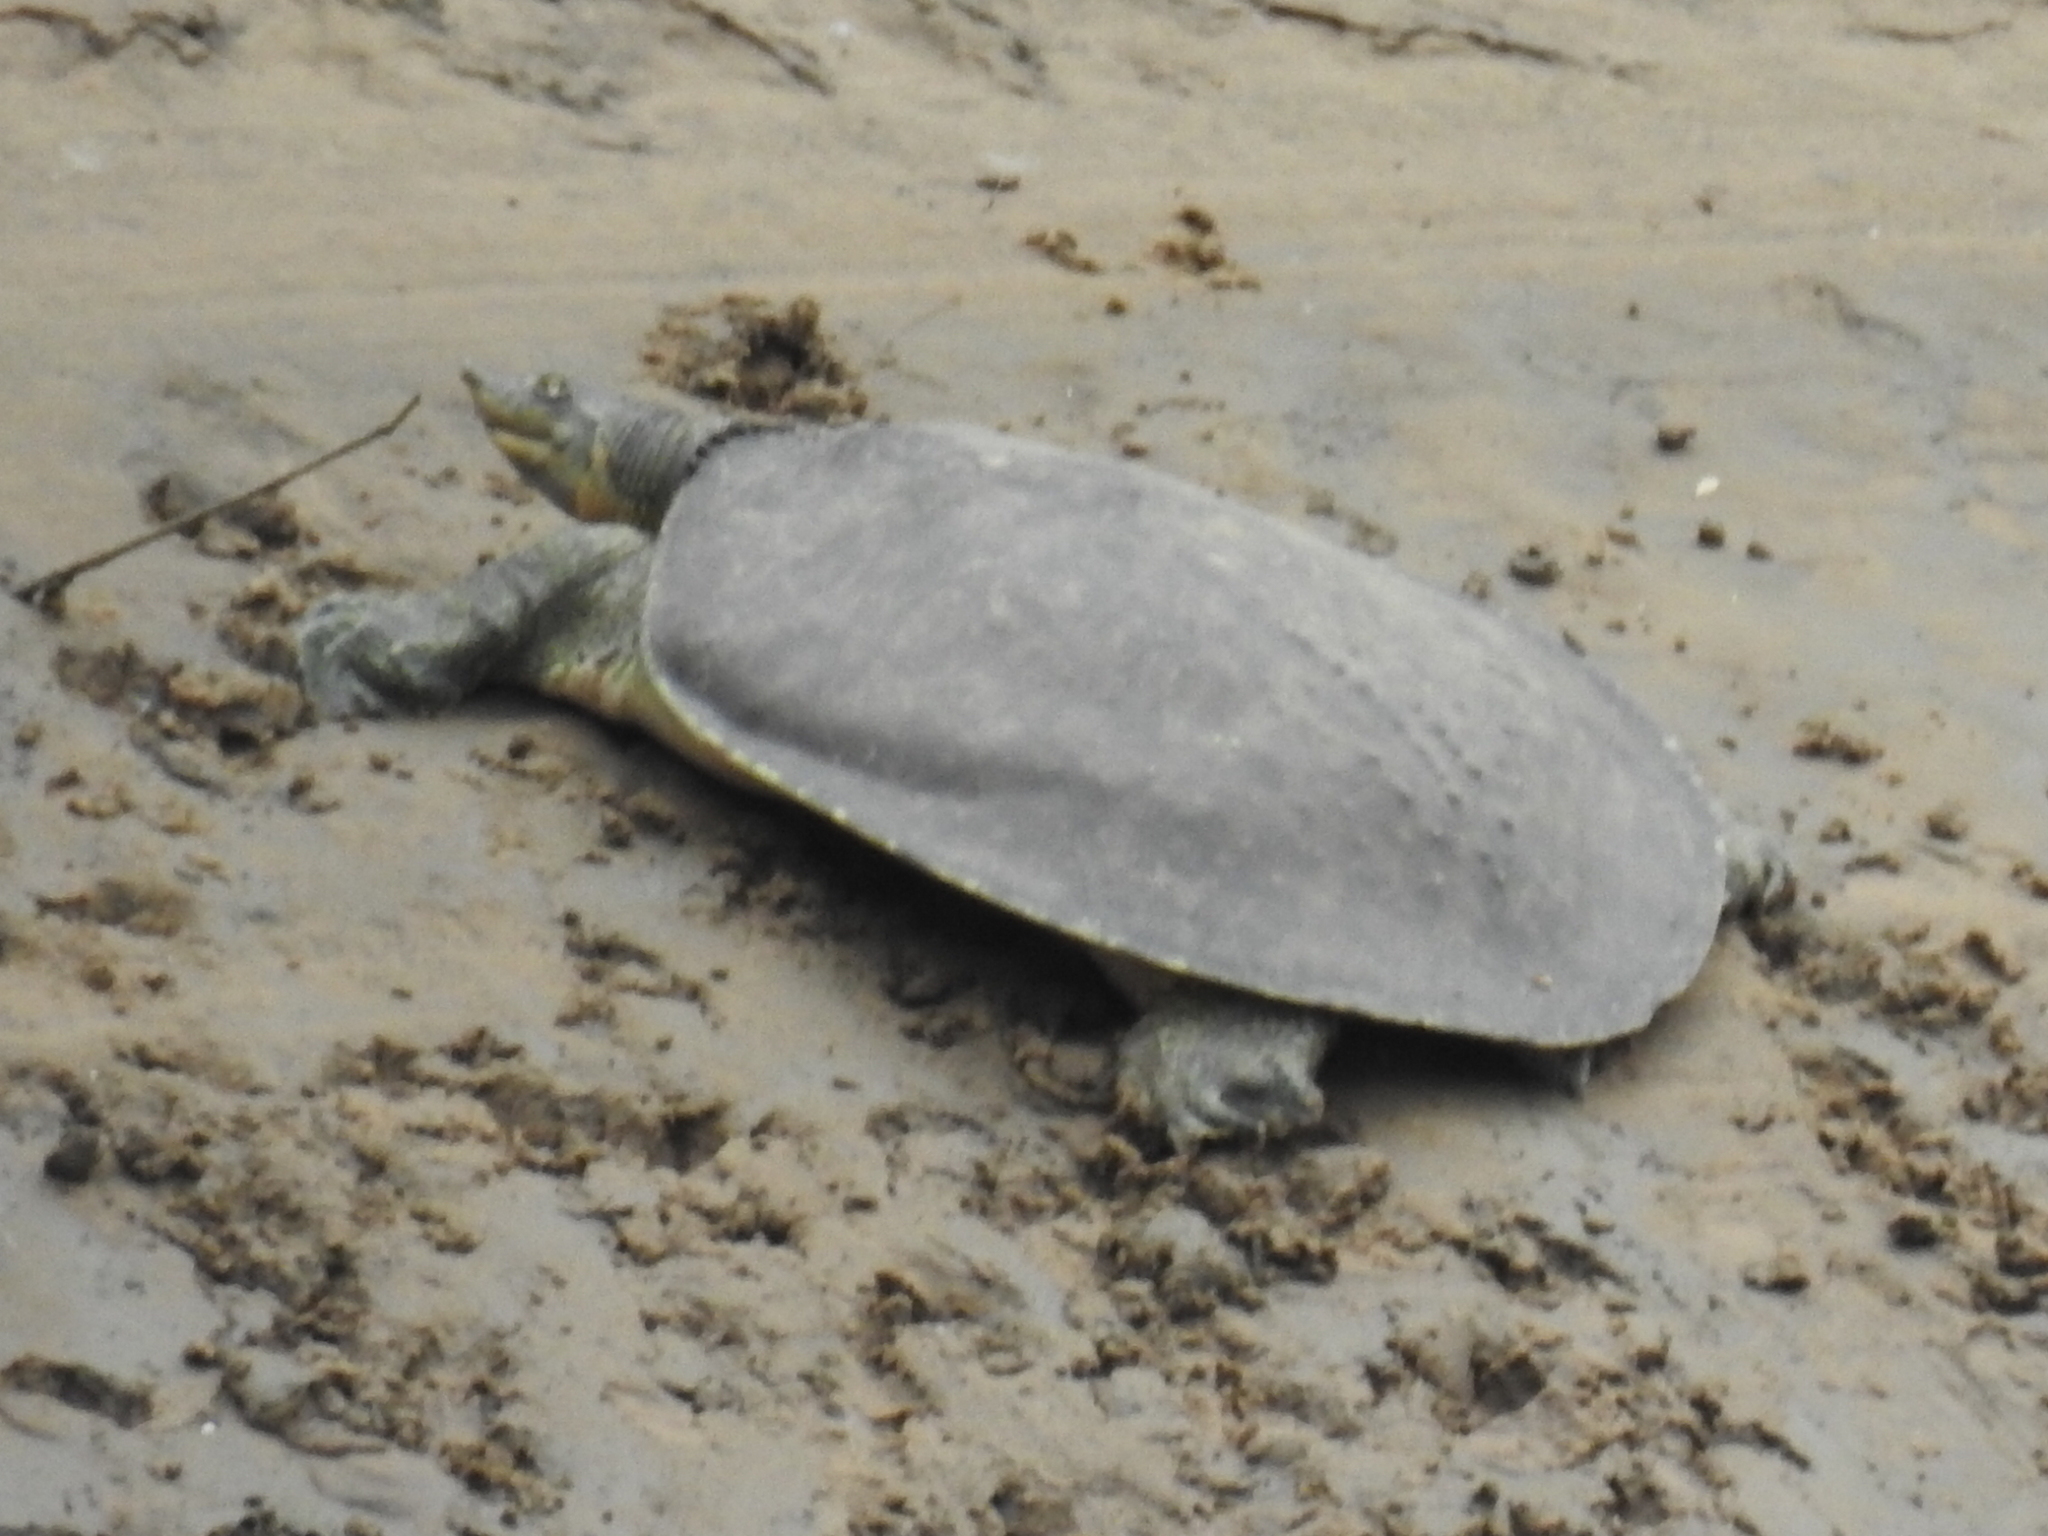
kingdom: Animalia
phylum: Chordata
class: Testudines
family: Trionychidae
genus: Apalone
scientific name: Apalone spinifera
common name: Spiny softshell turtle
